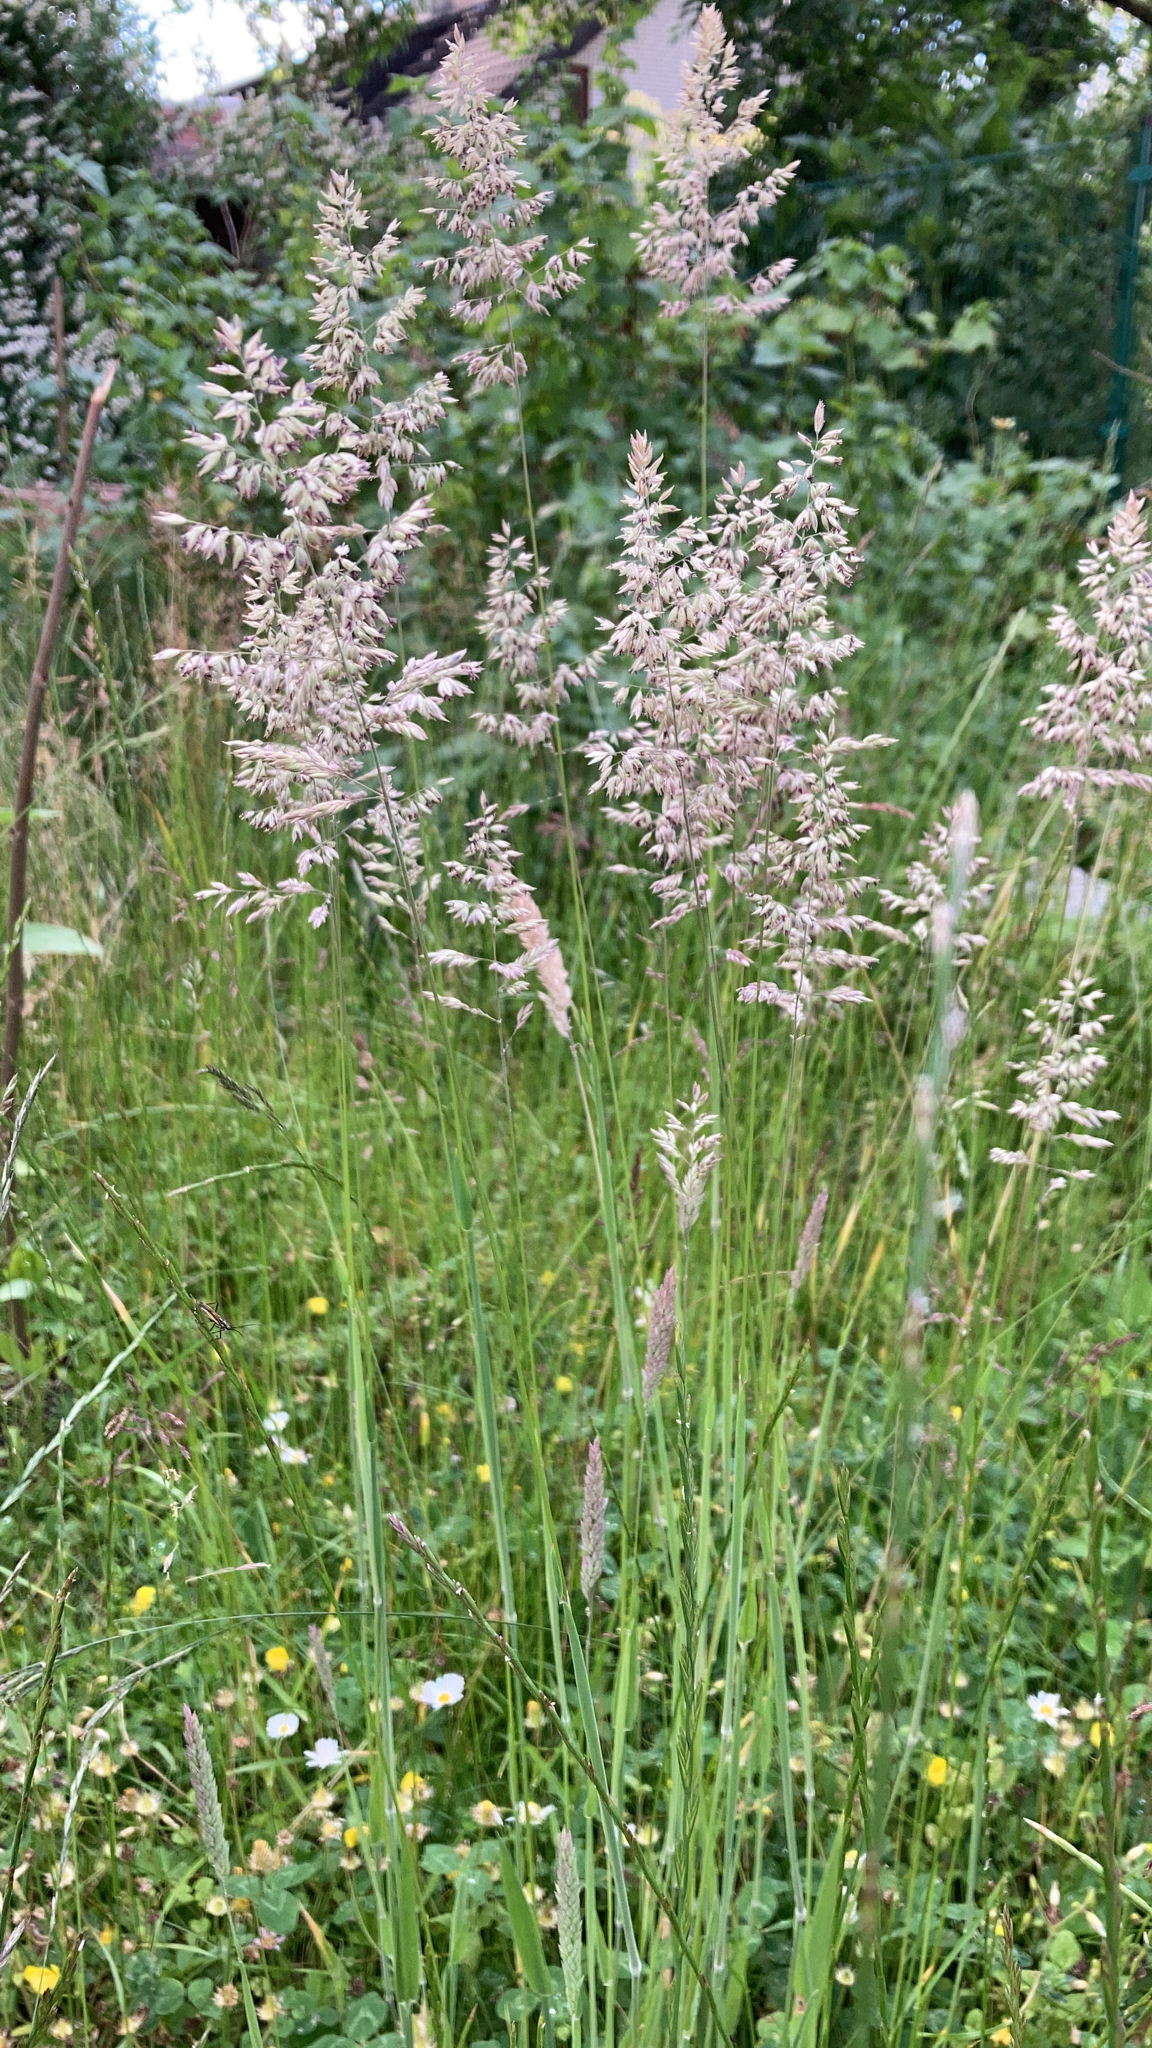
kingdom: Plantae
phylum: Tracheophyta
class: Liliopsida
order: Poales
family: Poaceae
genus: Holcus
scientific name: Holcus lanatus
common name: Yorkshire-fog
